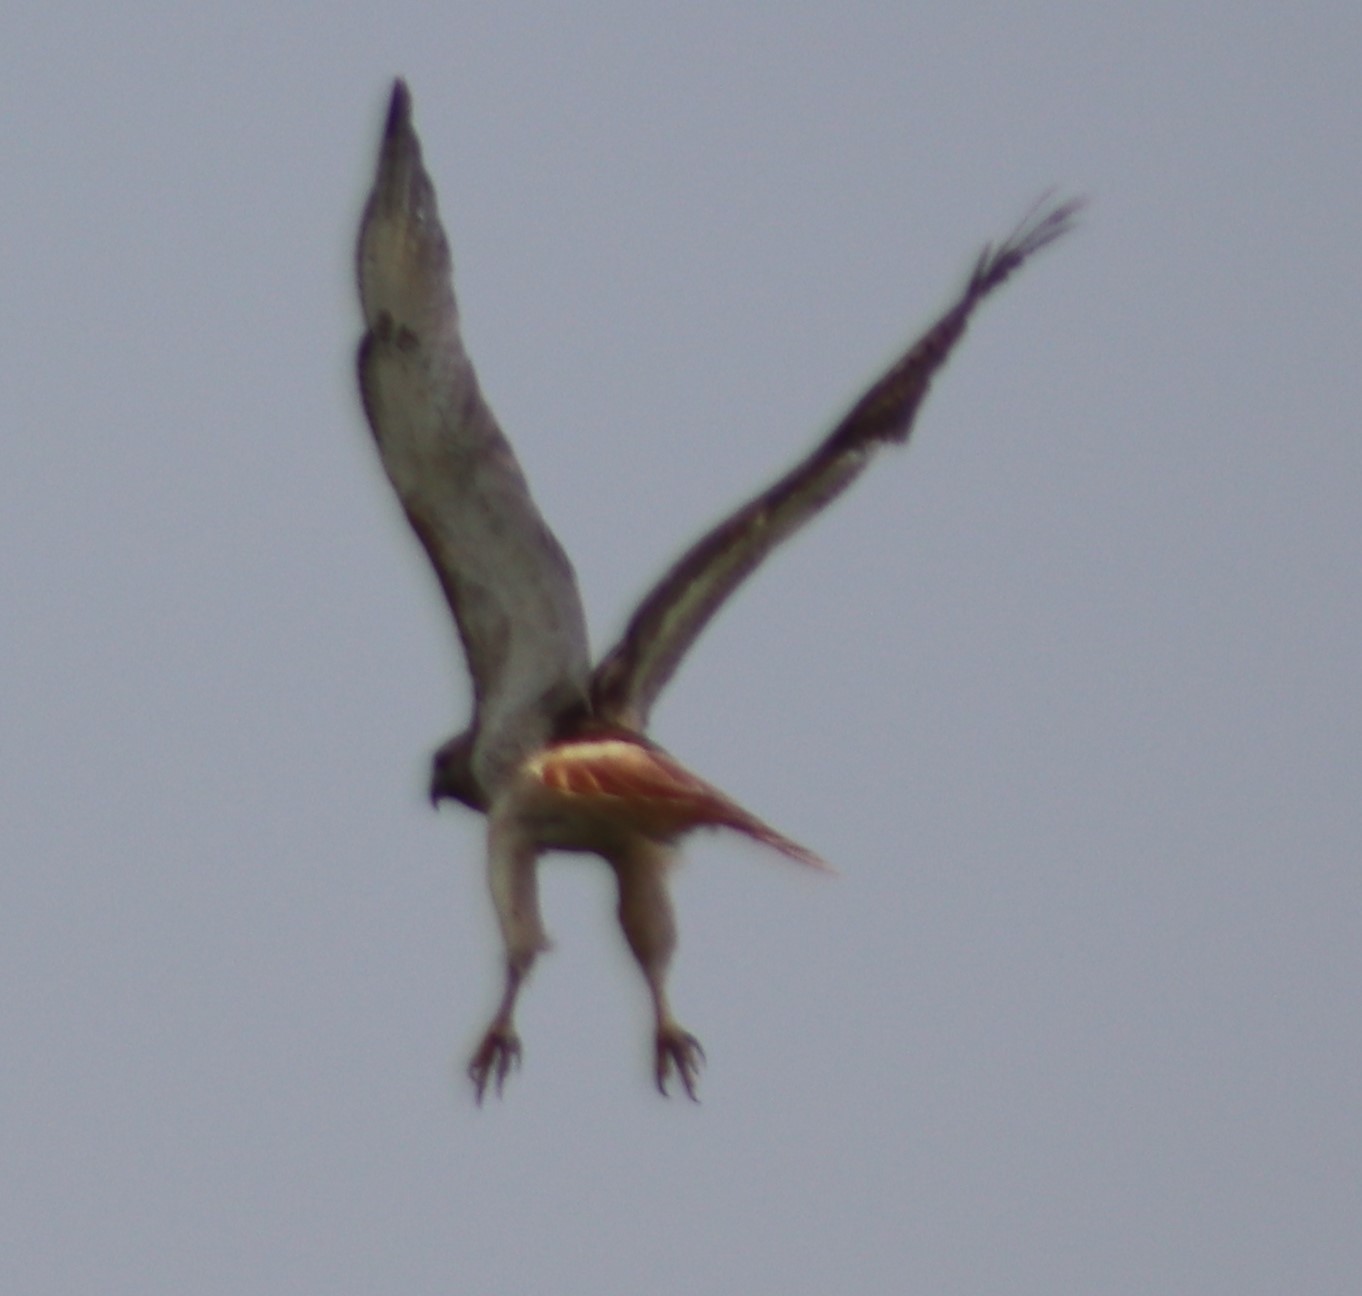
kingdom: Animalia
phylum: Chordata
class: Aves
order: Accipitriformes
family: Accipitridae
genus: Buteo
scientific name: Buteo jamaicensis
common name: Red-tailed hawk
